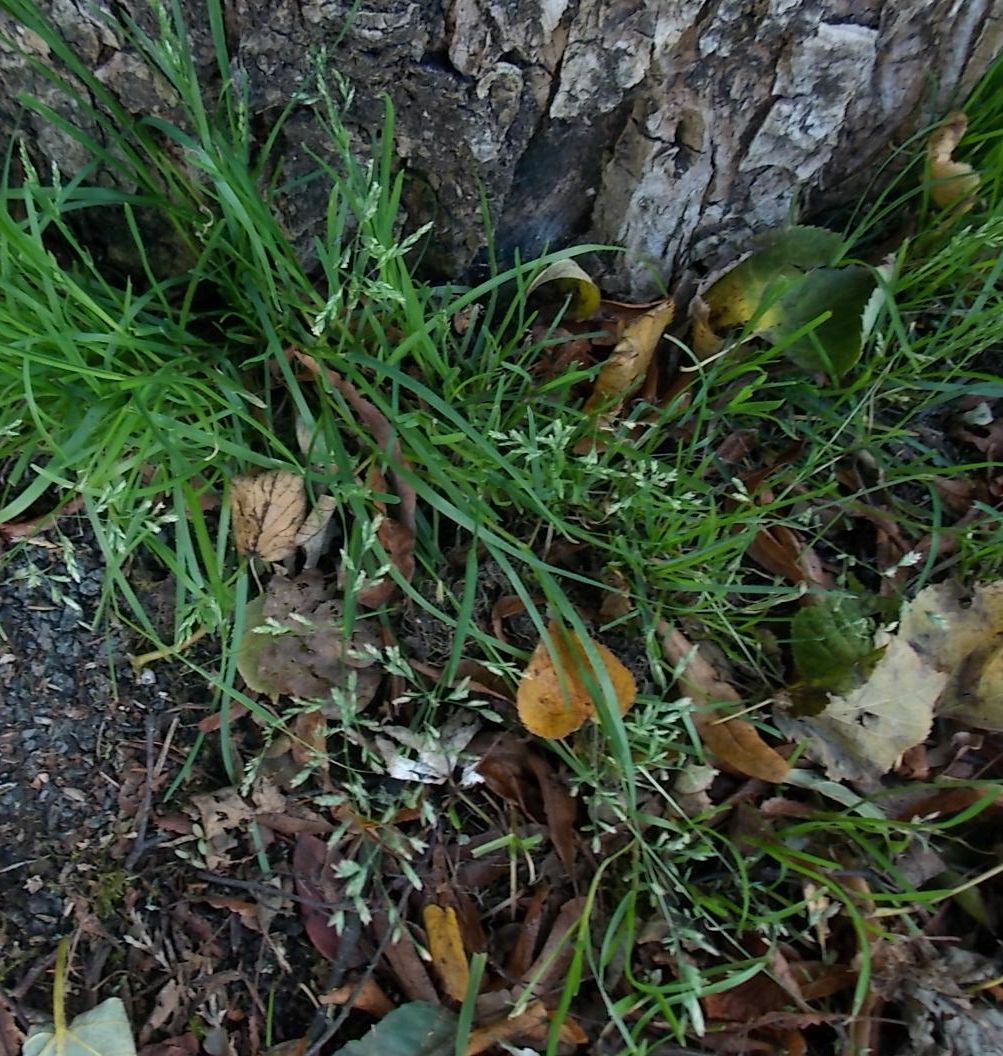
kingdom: Plantae
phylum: Tracheophyta
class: Liliopsida
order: Poales
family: Poaceae
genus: Poa
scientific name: Poa annua
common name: Annual bluegrass
